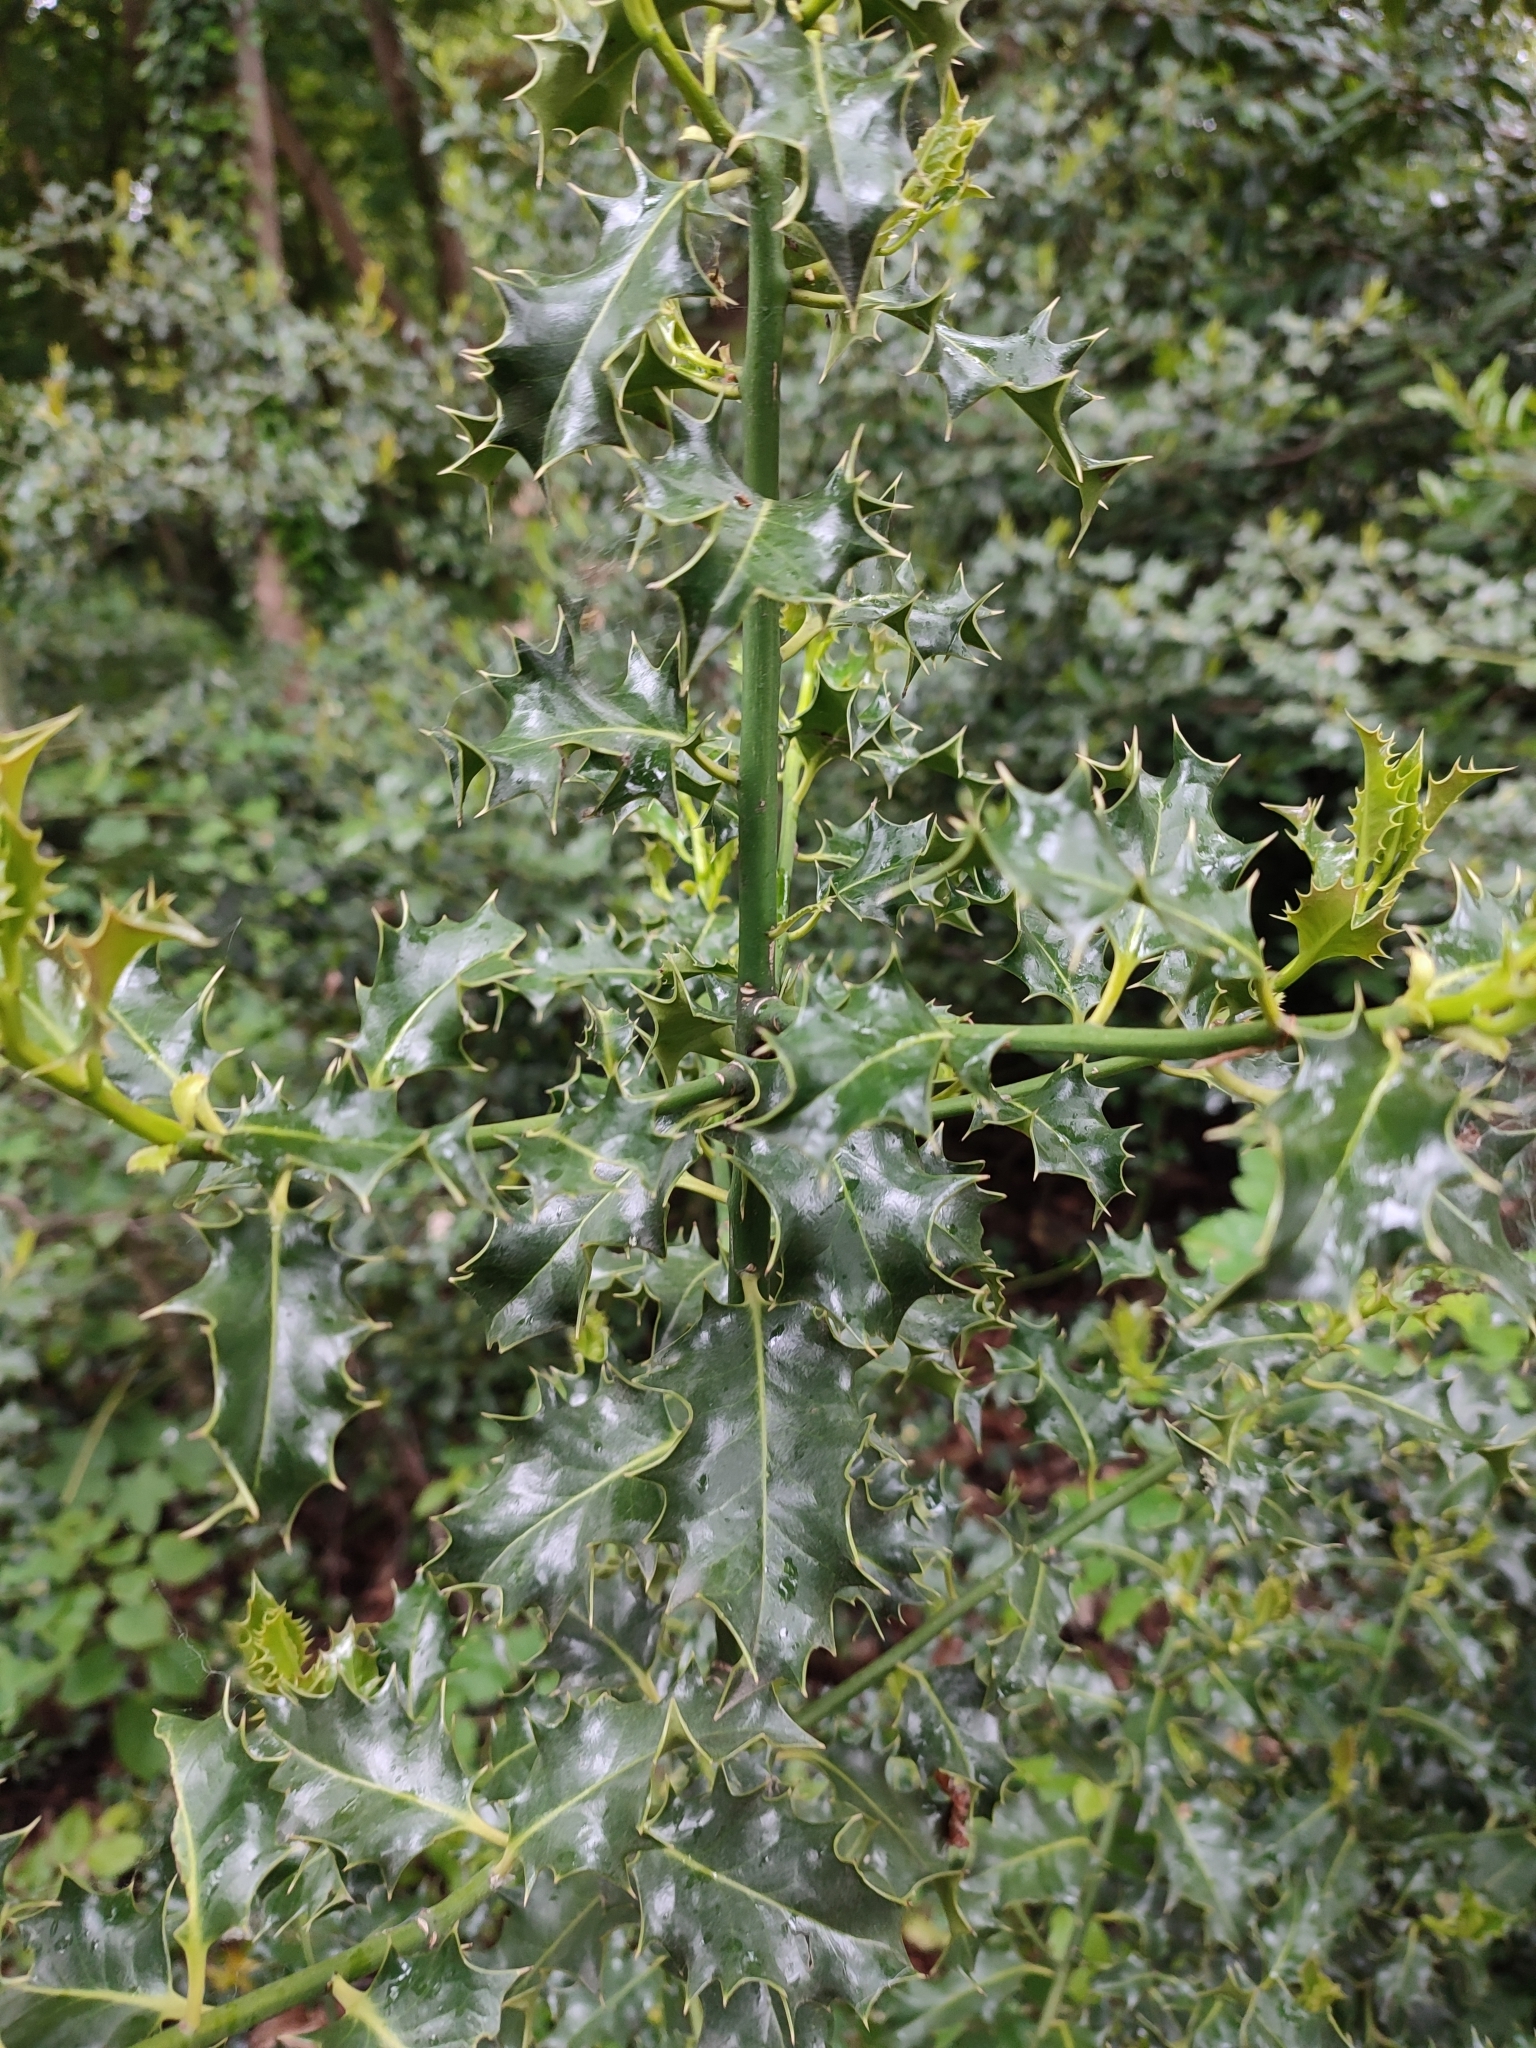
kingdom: Plantae
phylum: Tracheophyta
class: Magnoliopsida
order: Aquifoliales
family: Aquifoliaceae
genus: Ilex
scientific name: Ilex aquifolium
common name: English holly
